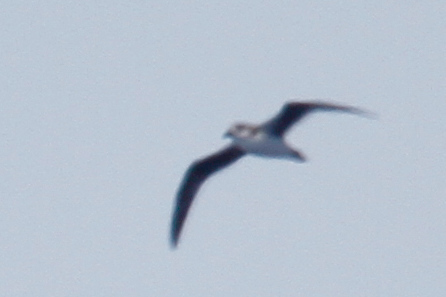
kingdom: Animalia
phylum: Chordata
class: Aves
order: Procellariiformes
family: Procellariidae
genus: Pterodroma
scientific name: Pterodroma feae
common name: Fea's petrel
